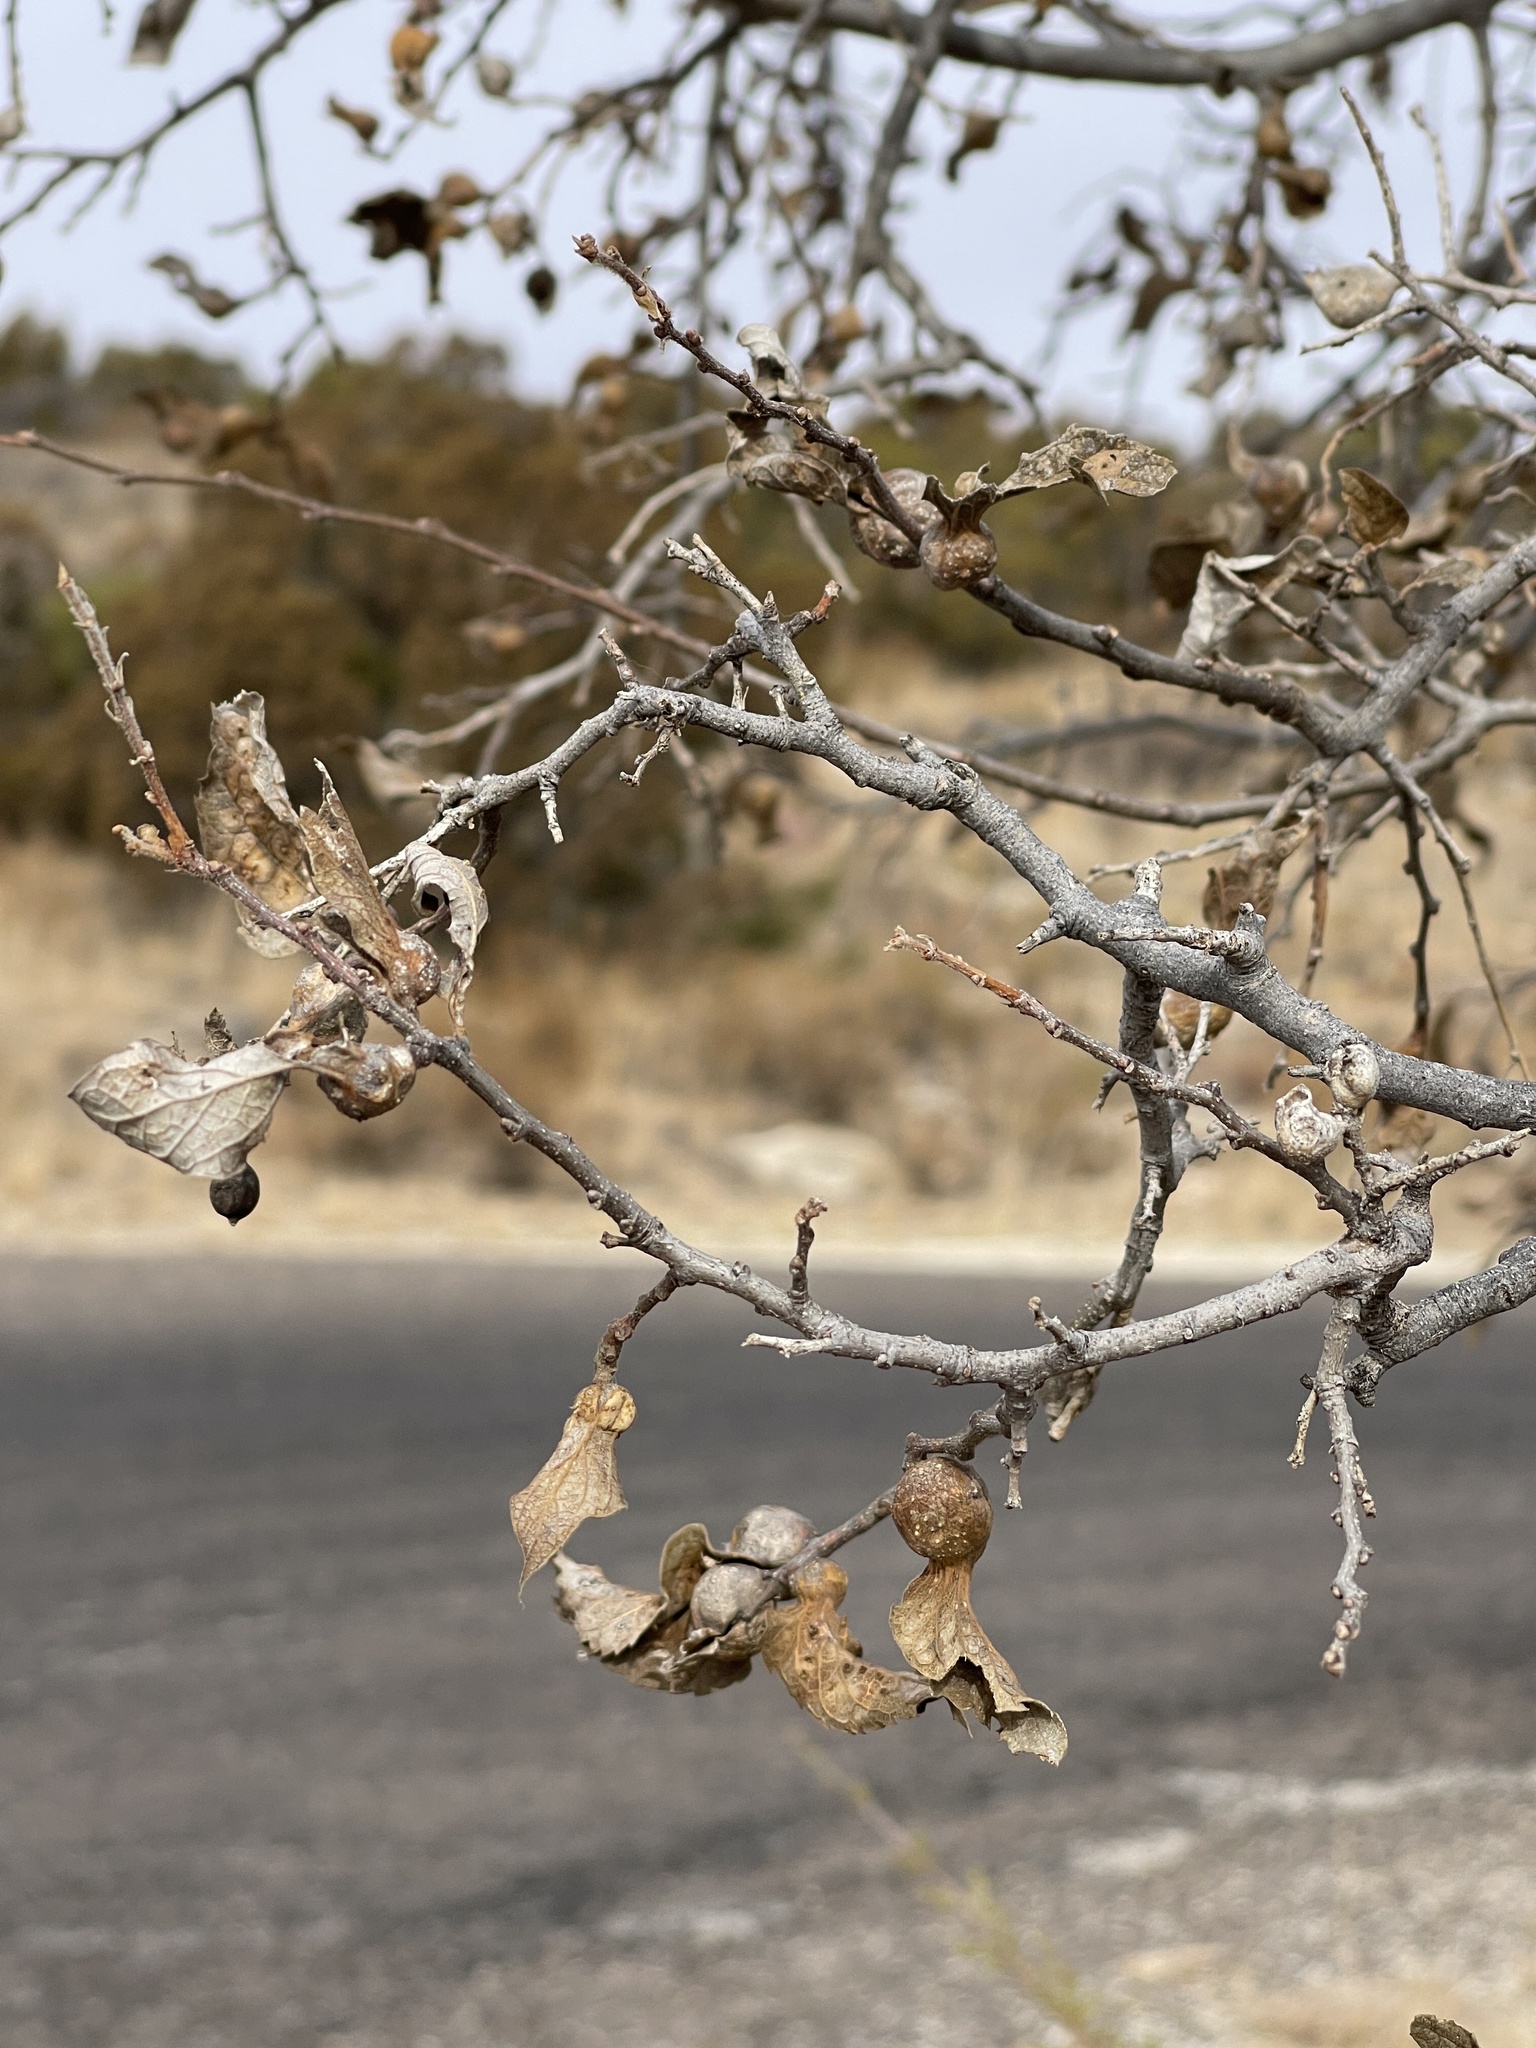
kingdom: Animalia
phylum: Arthropoda
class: Insecta
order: Hemiptera
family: Aphalaridae
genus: Pachypsylla
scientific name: Pachypsylla venusta
